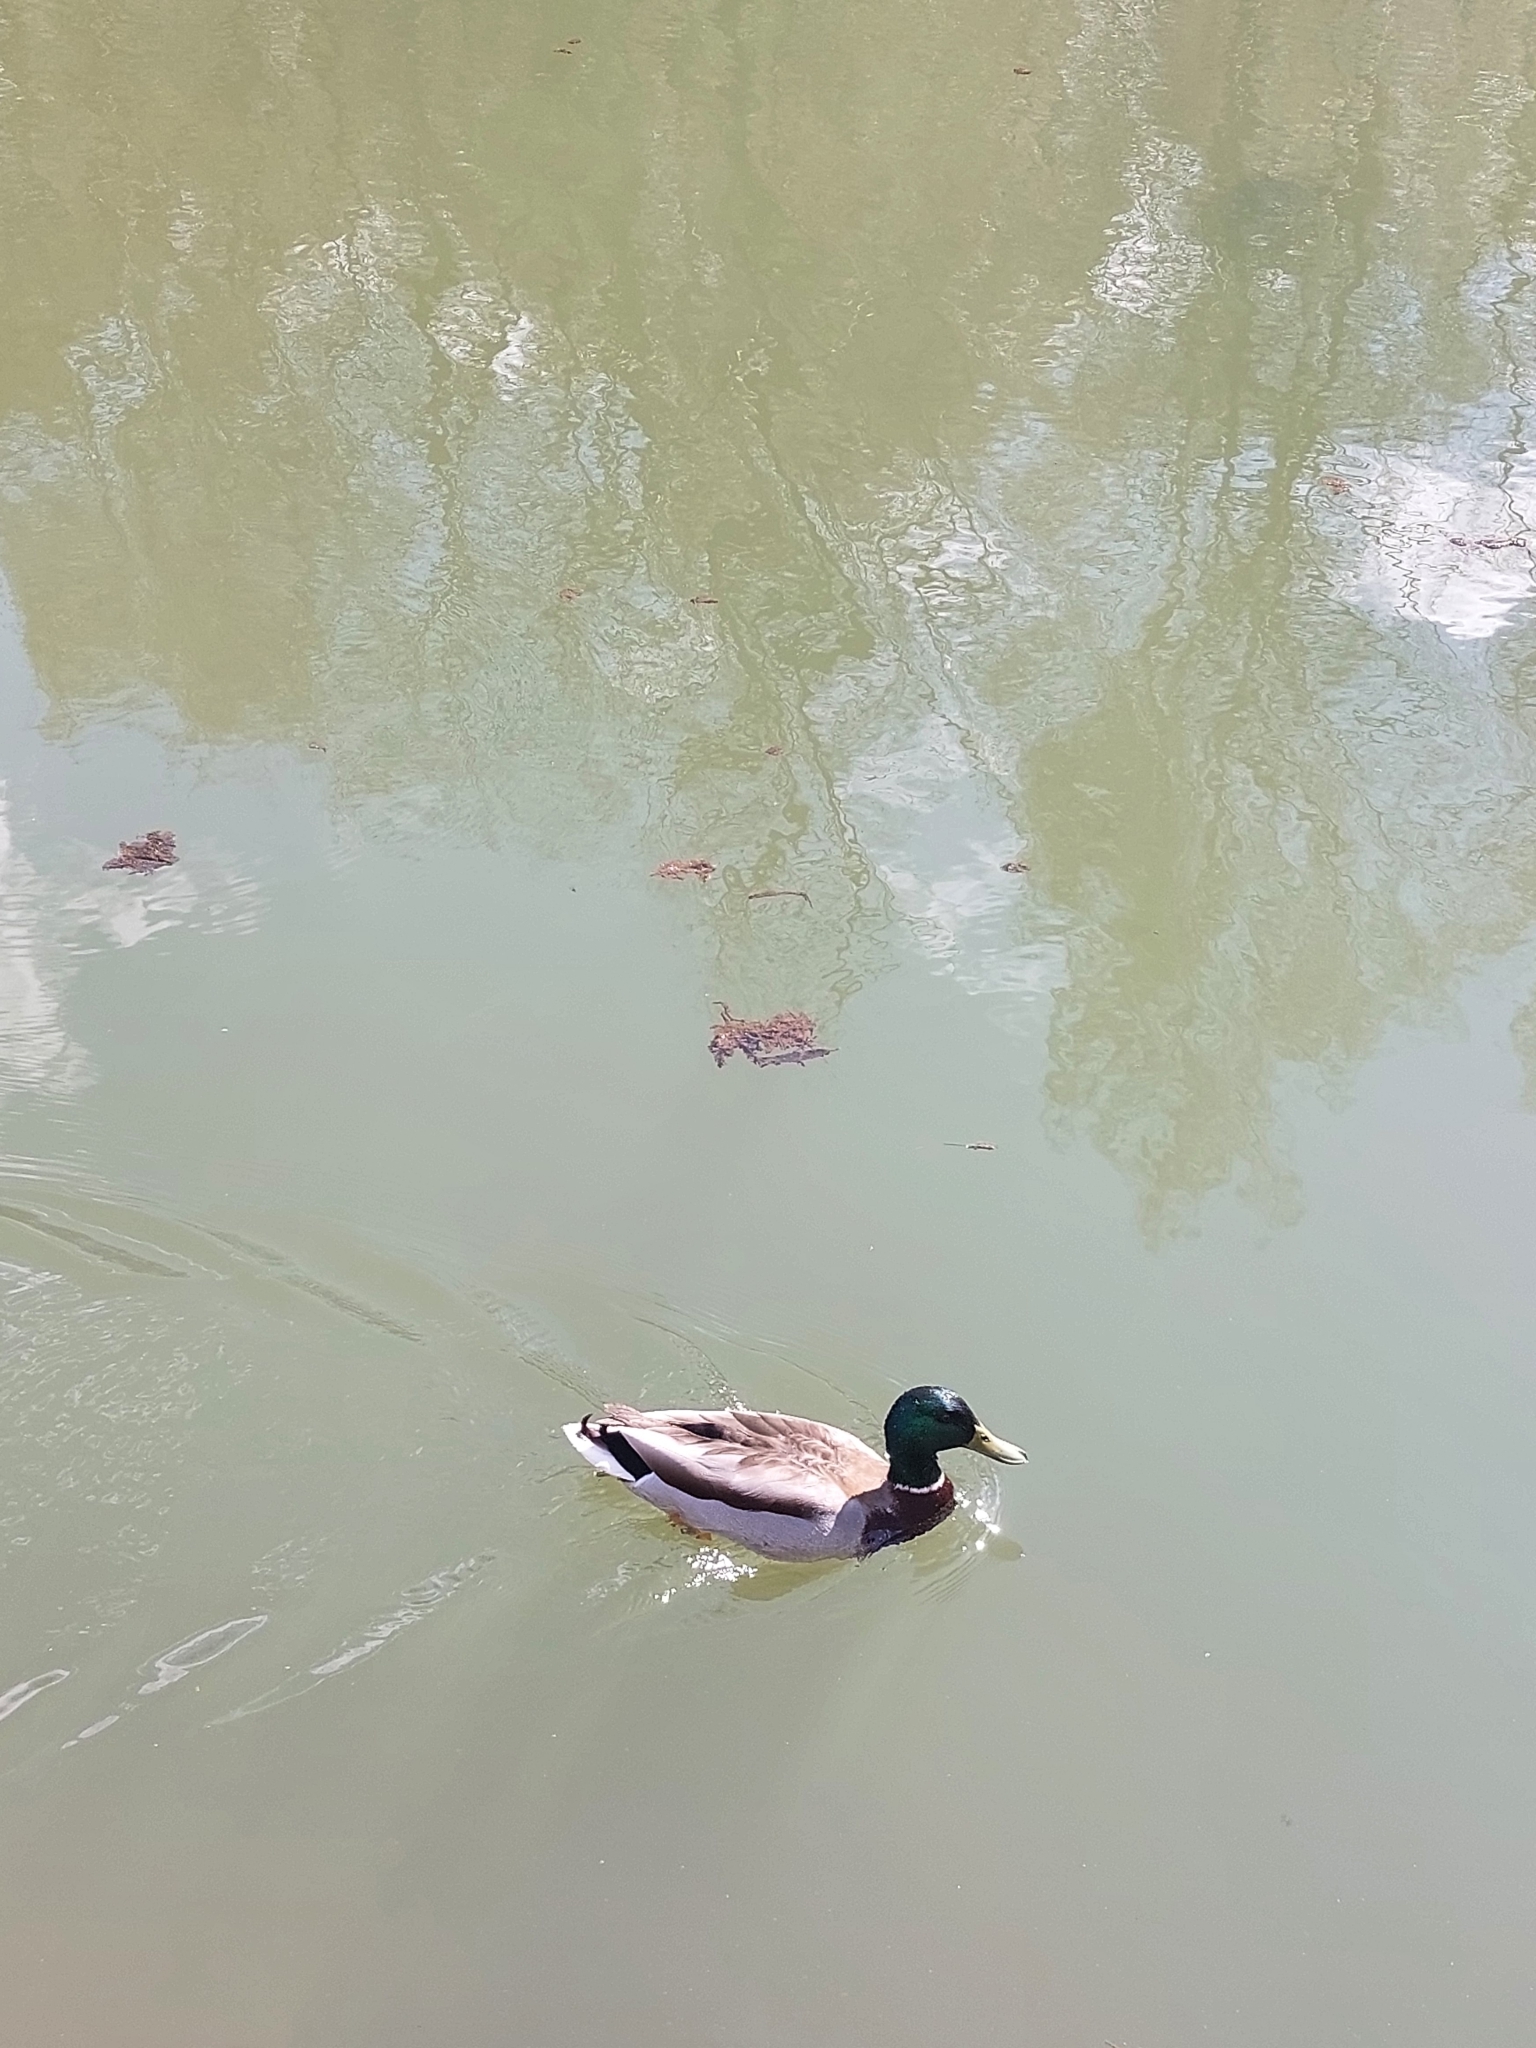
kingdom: Animalia
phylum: Chordata
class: Aves
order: Anseriformes
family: Anatidae
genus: Anas
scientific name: Anas platyrhynchos
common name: Mallard
